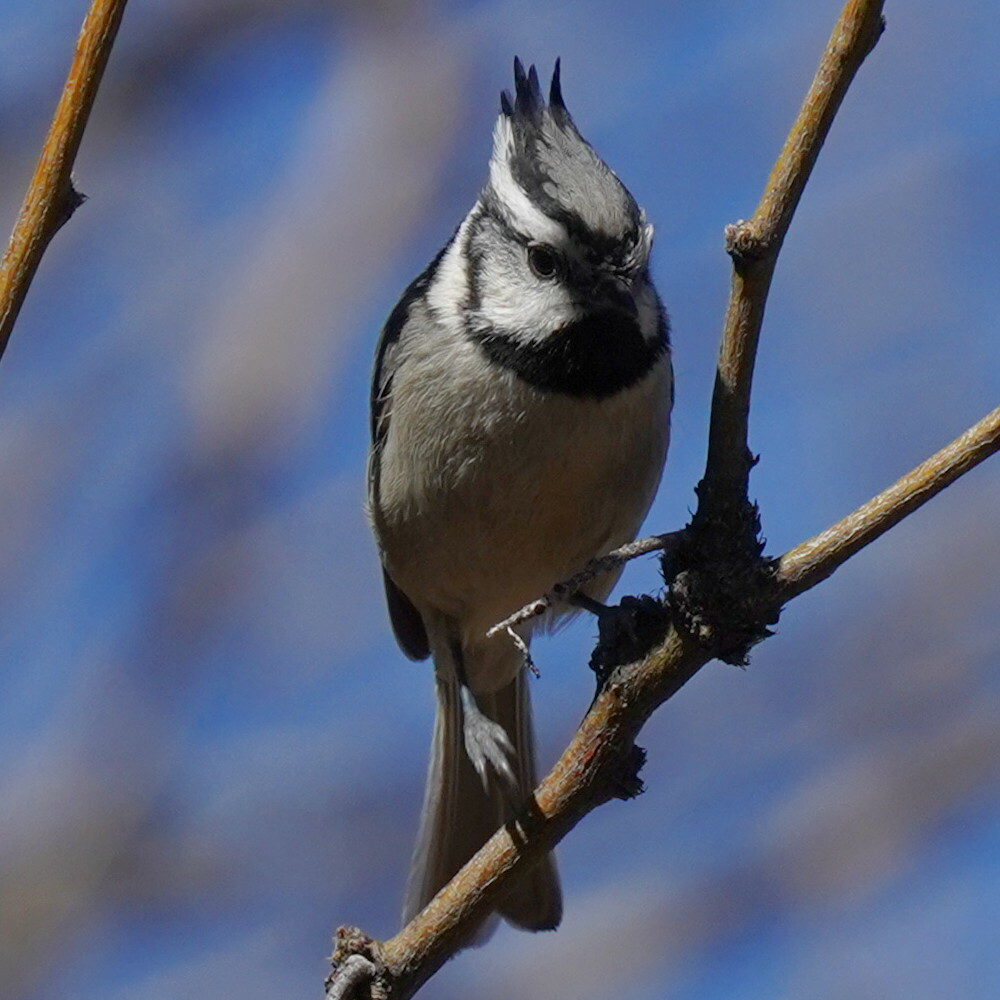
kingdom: Animalia
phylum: Chordata
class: Aves
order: Passeriformes
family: Paridae
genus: Baeolophus
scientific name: Baeolophus wollweberi
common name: Bridled titmouse
